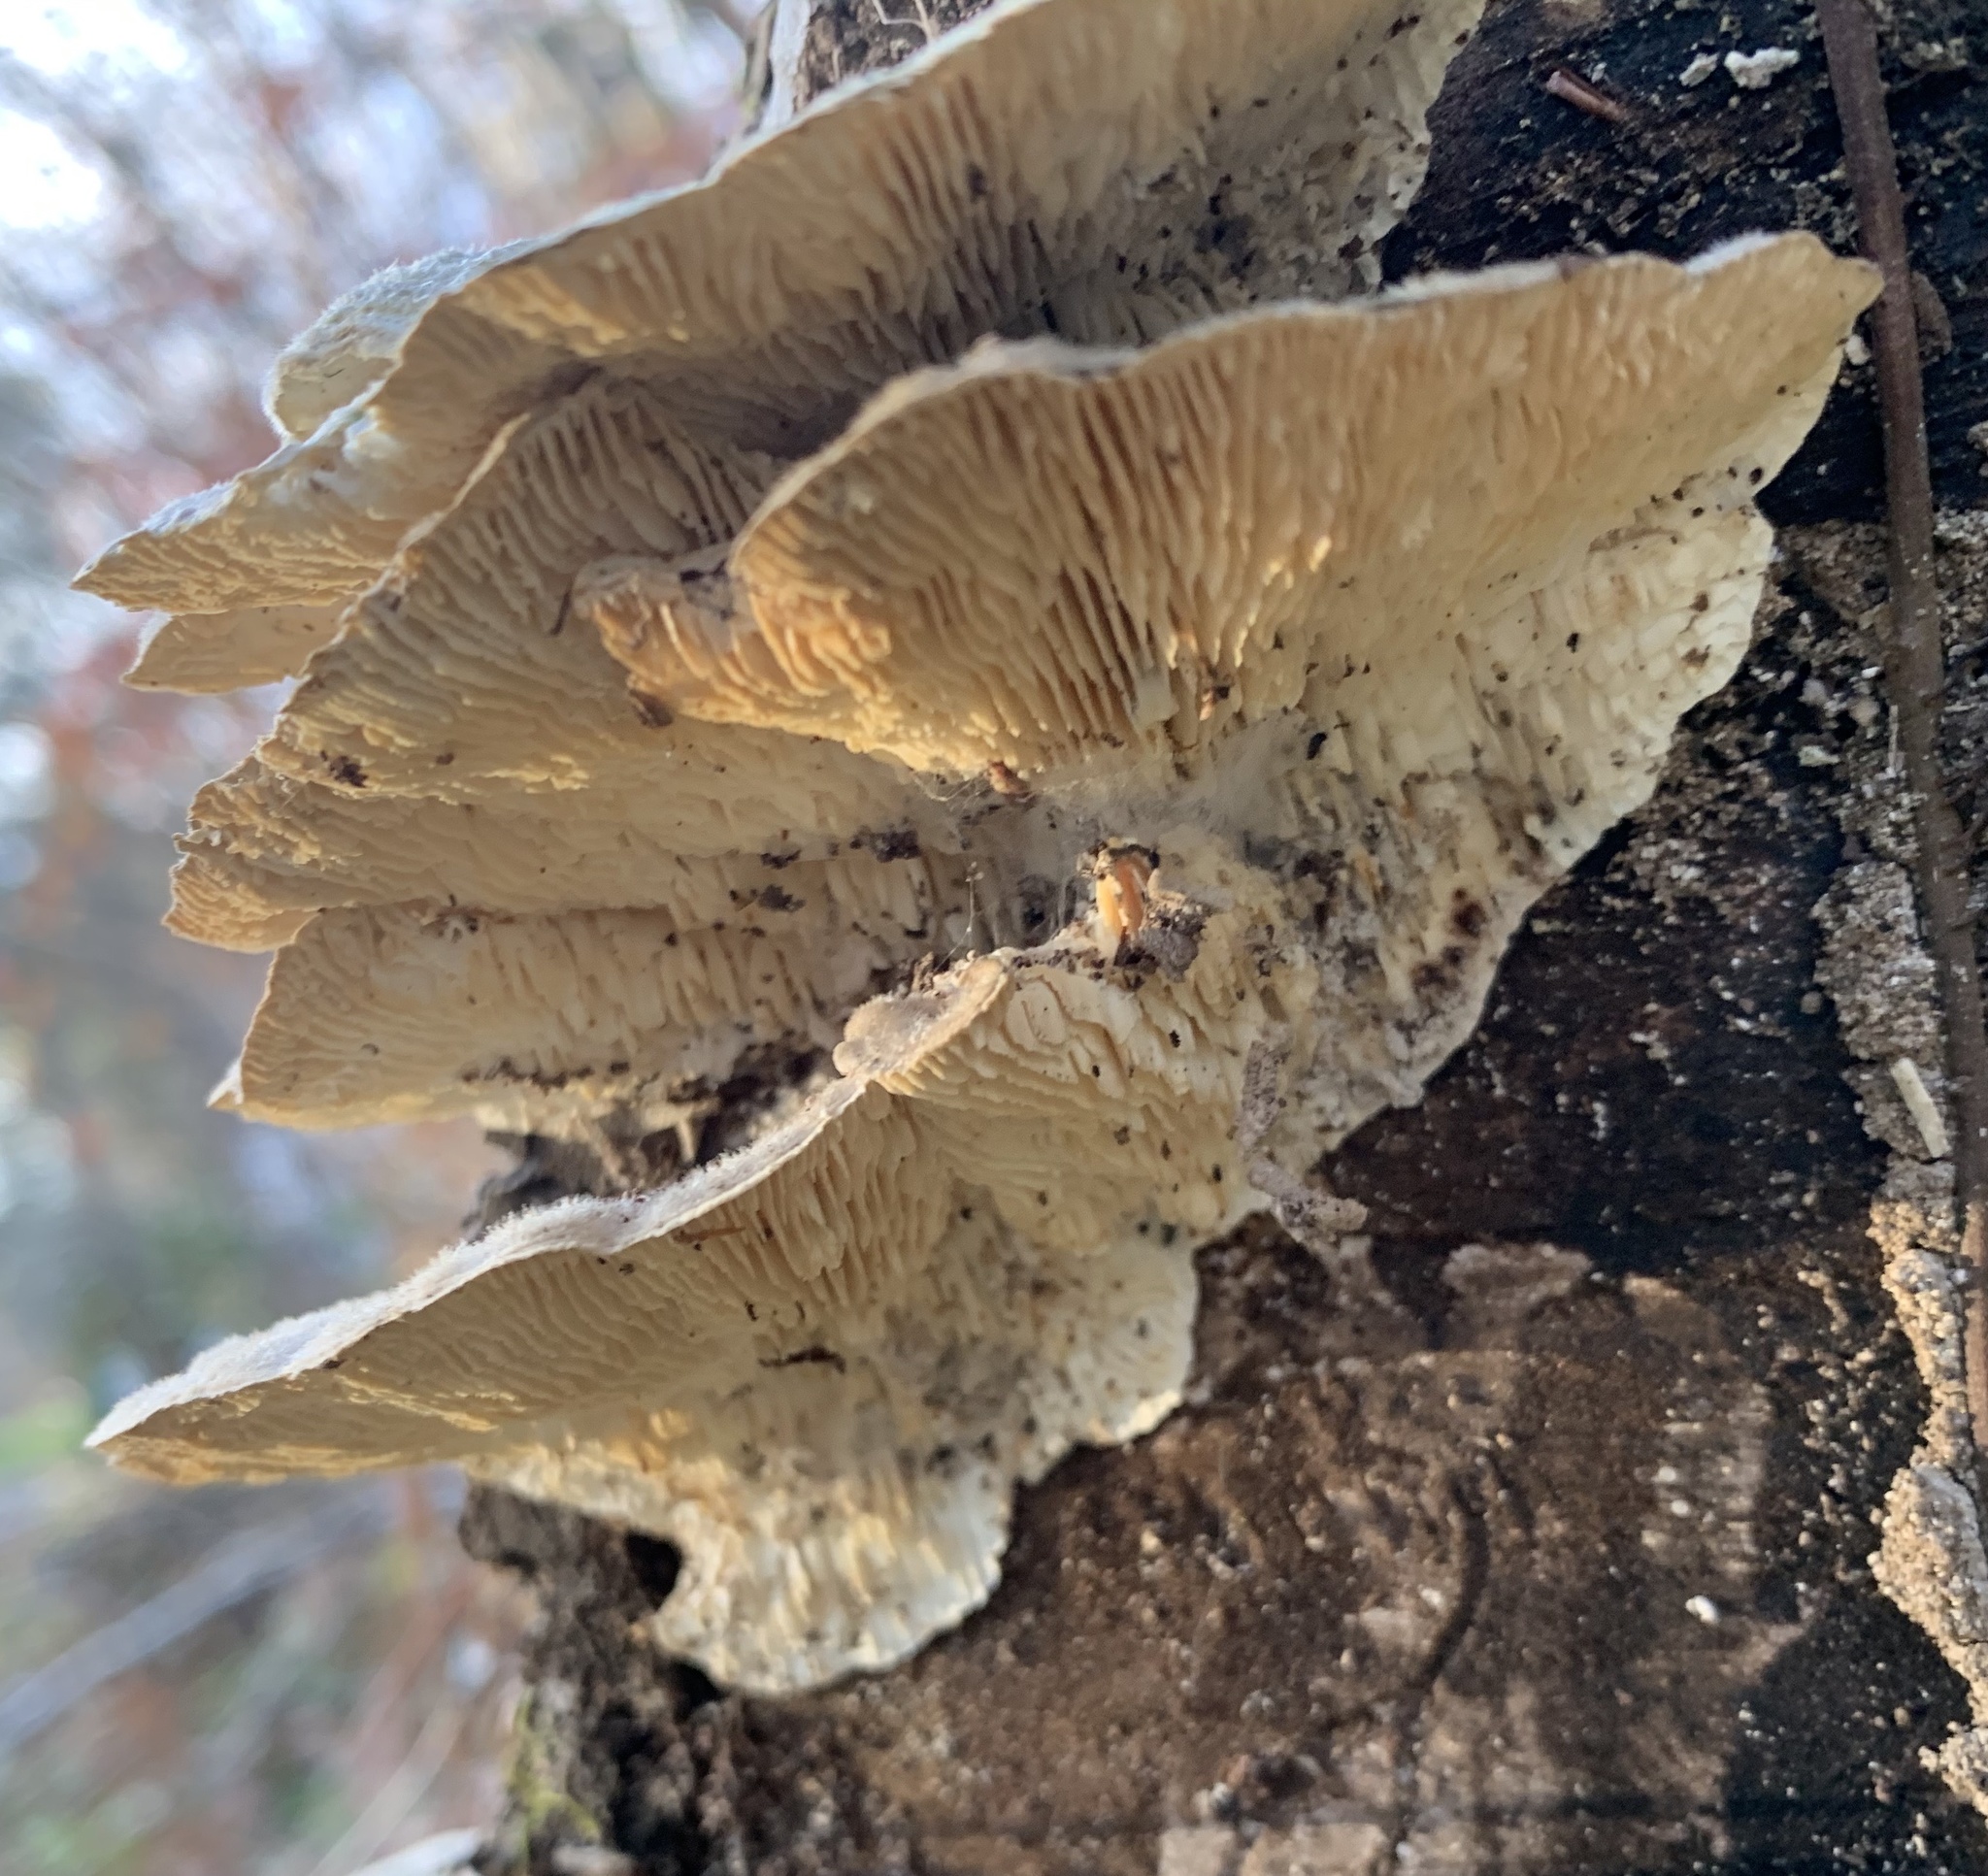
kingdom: Fungi
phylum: Basidiomycota
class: Agaricomycetes
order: Polyporales
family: Polyporaceae
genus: Lenzites
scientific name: Lenzites betulinus
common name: Birch mazegill
